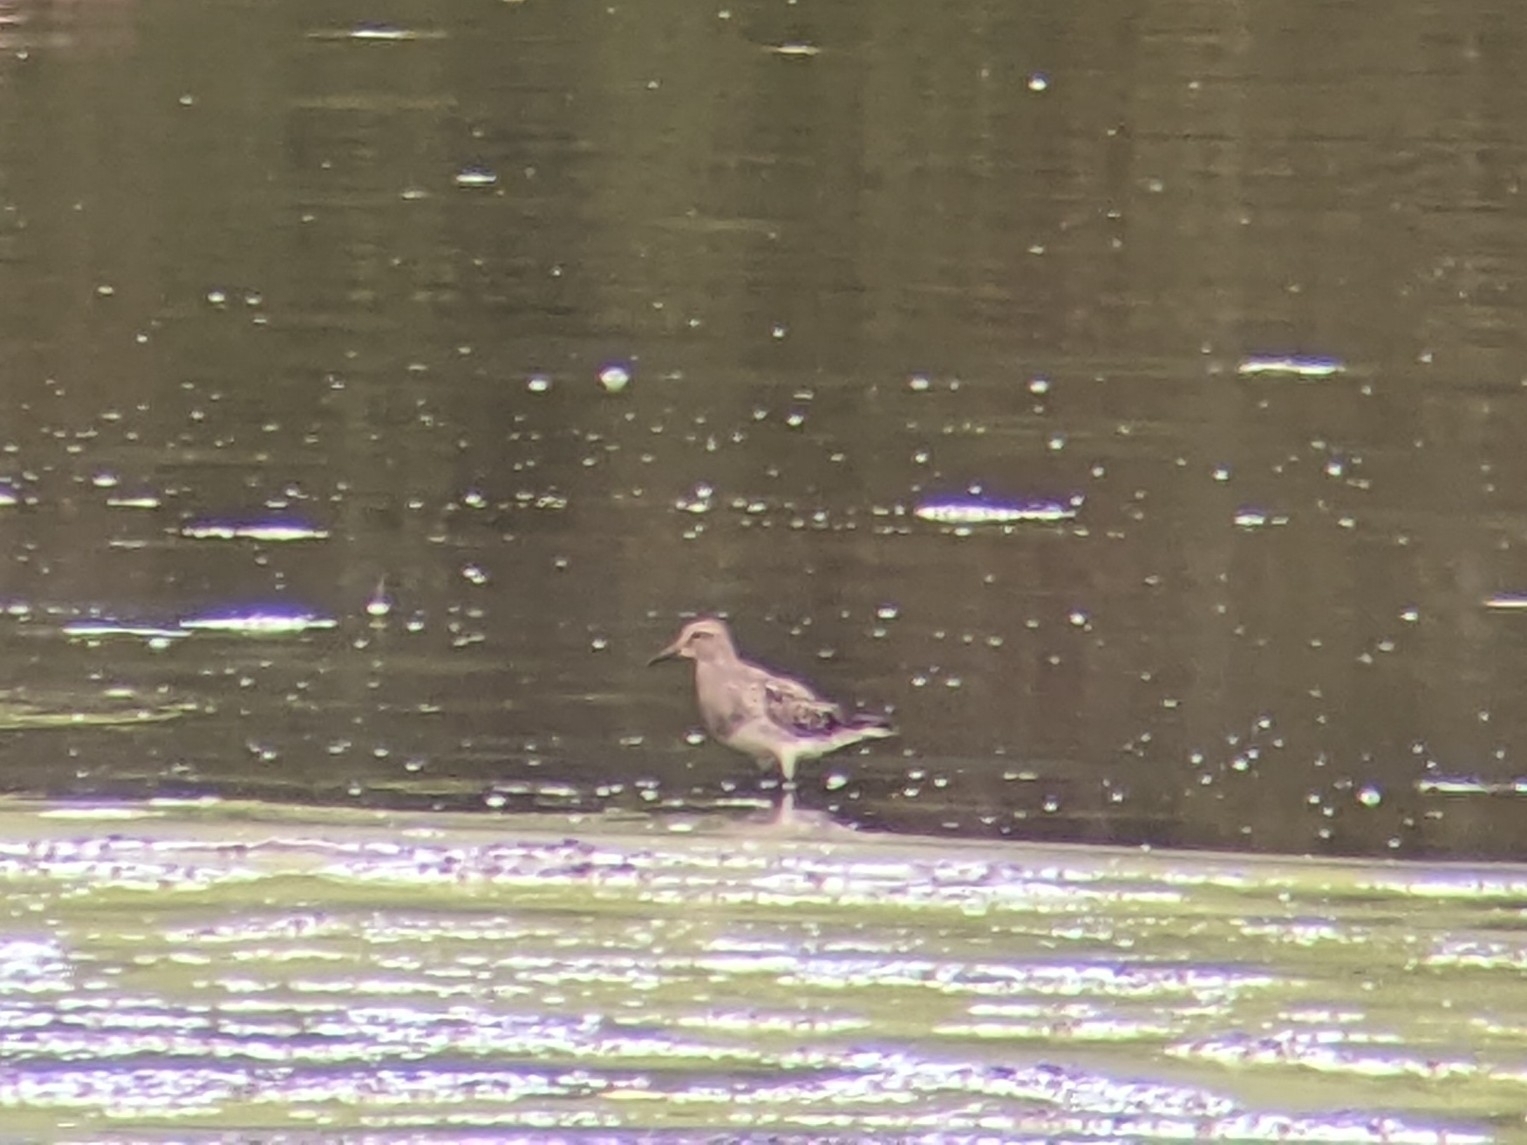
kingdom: Animalia
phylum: Chordata
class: Aves
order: Charadriiformes
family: Scolopacidae
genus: Calidris
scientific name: Calidris melanotos
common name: Pectoral sandpiper
